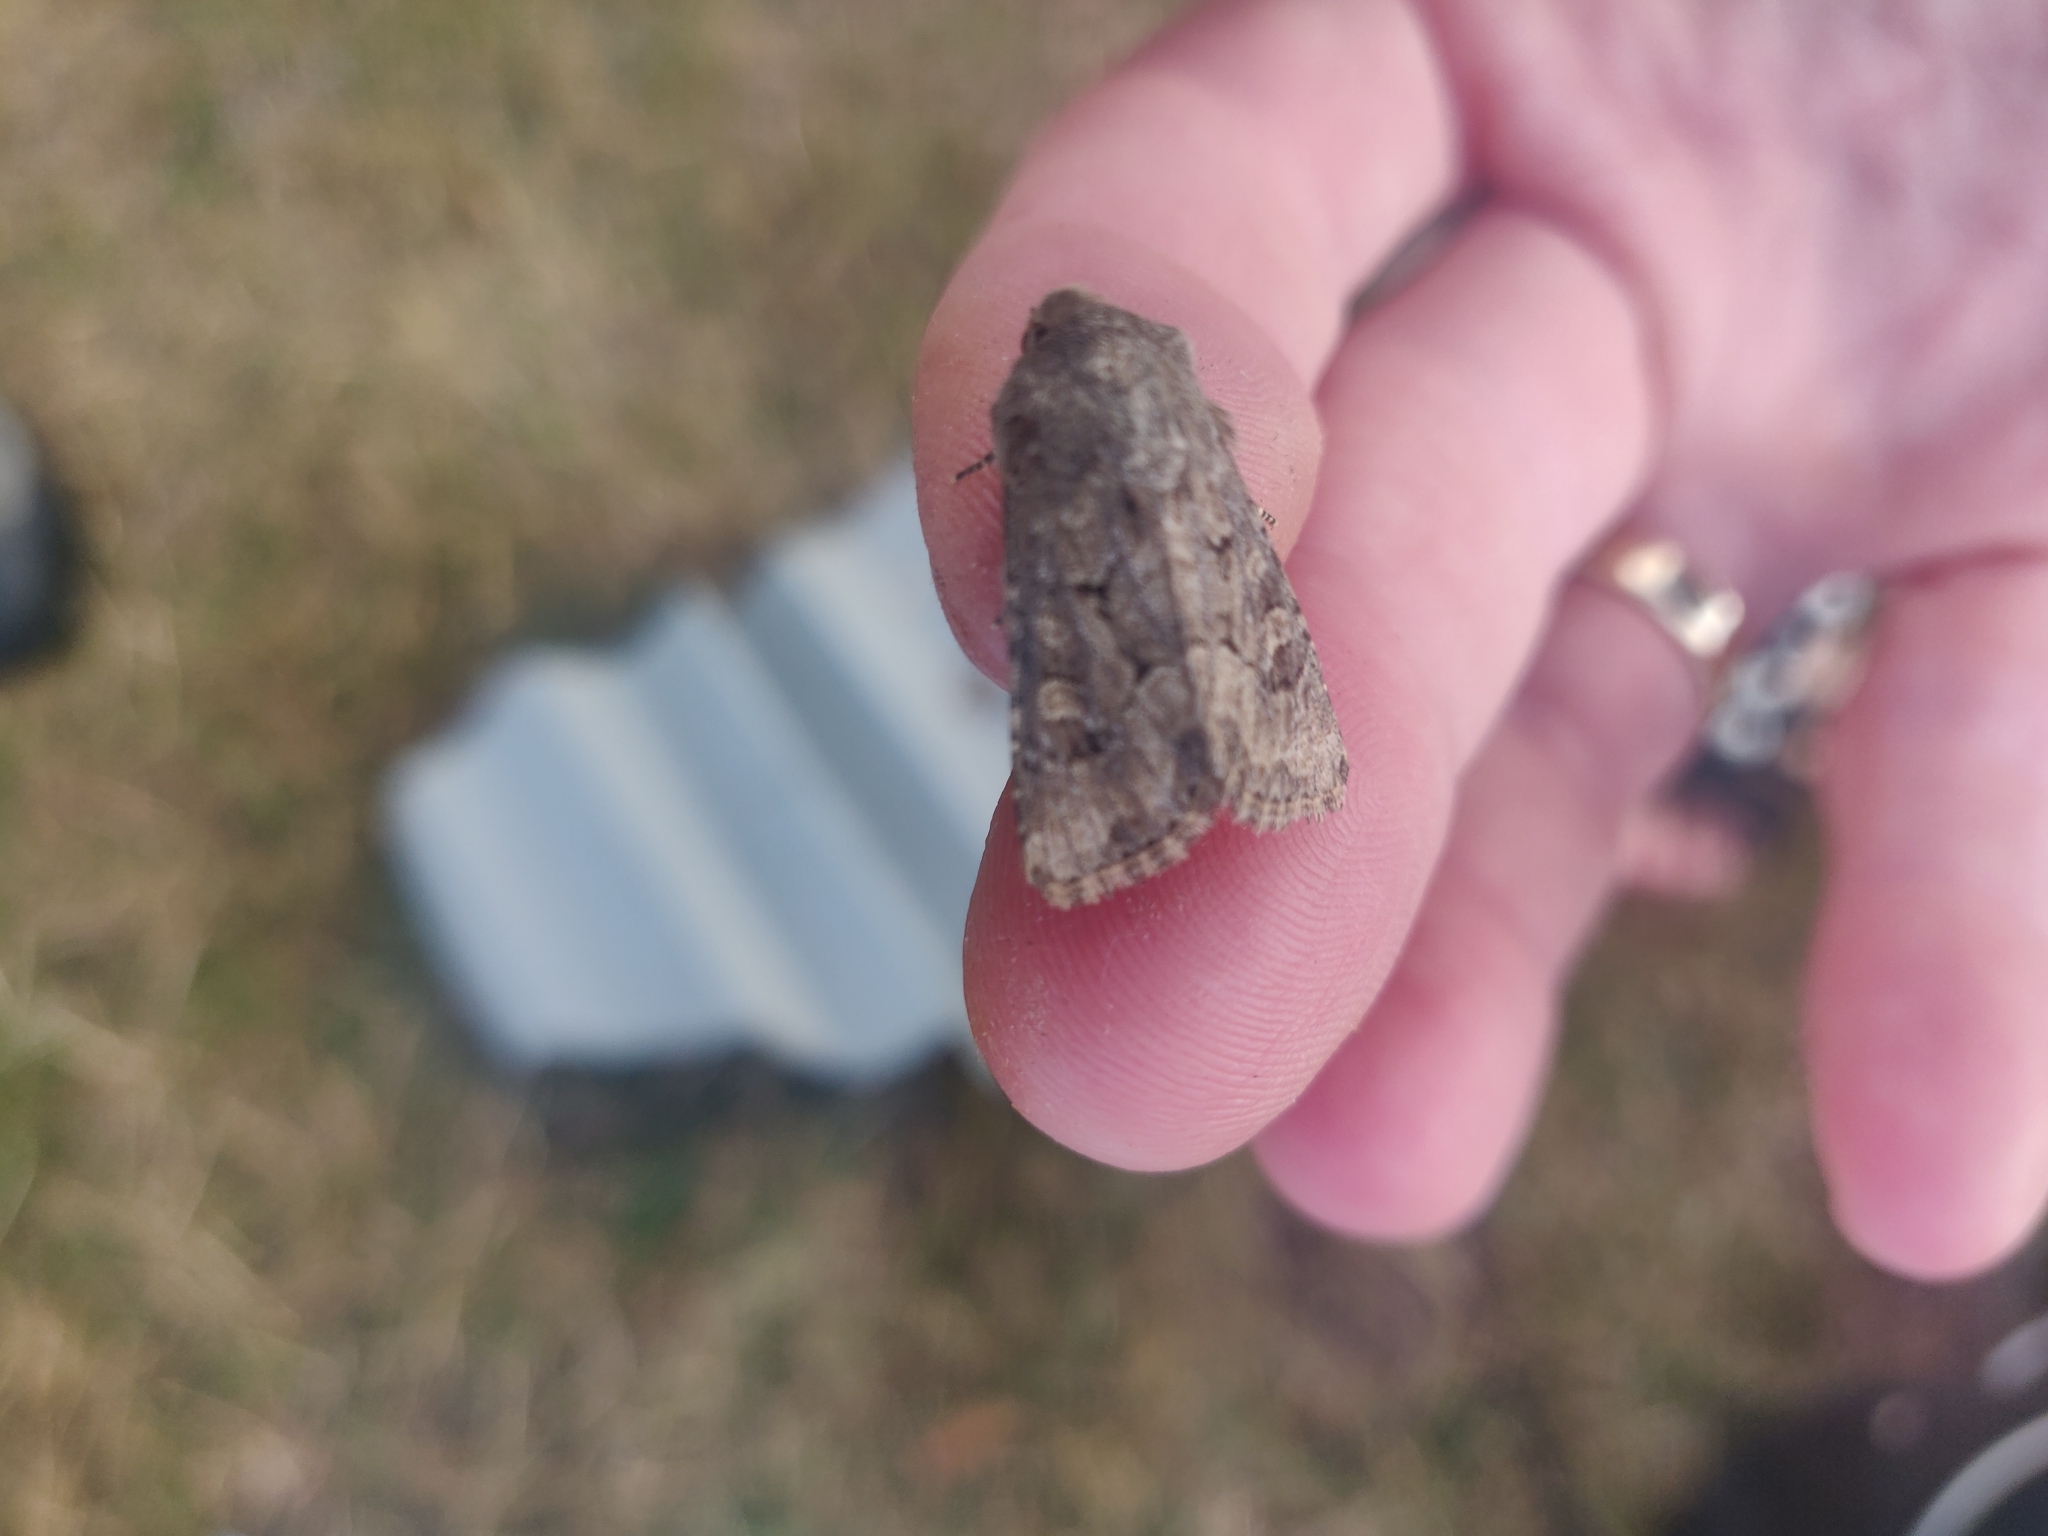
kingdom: Animalia
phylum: Arthropoda
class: Insecta
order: Lepidoptera
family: Noctuidae
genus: Luperina
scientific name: Luperina testacea
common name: Flounced rustic
